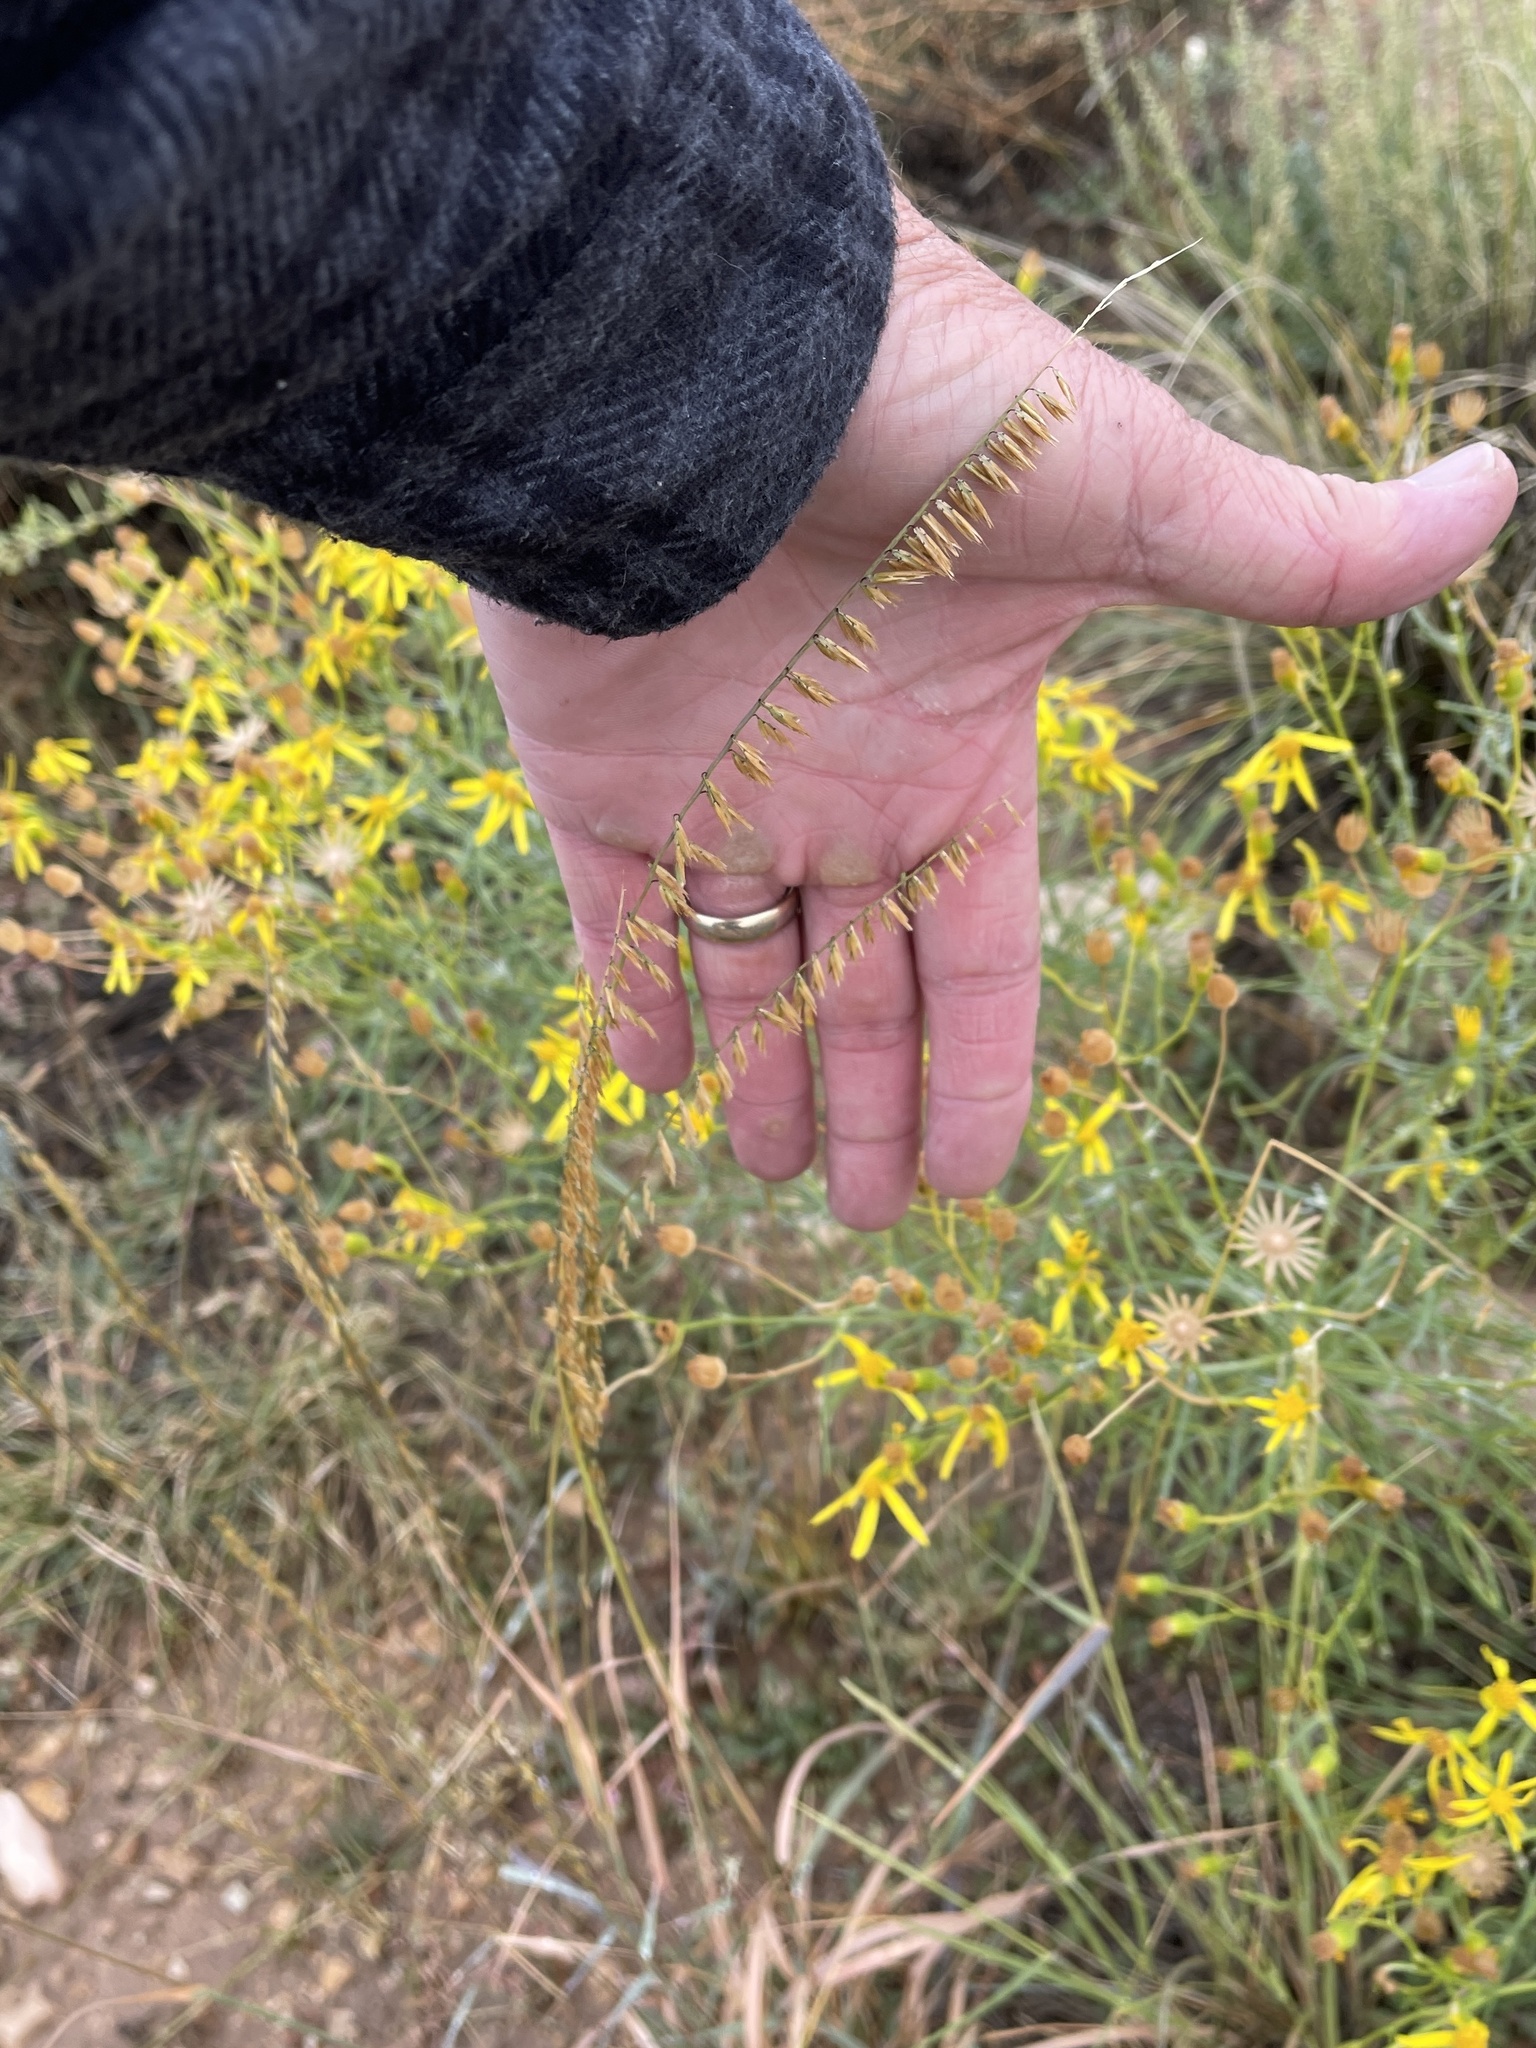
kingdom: Plantae
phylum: Tracheophyta
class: Liliopsida
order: Poales
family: Poaceae
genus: Bouteloua
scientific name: Bouteloua curtipendula
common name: Side-oats grama
